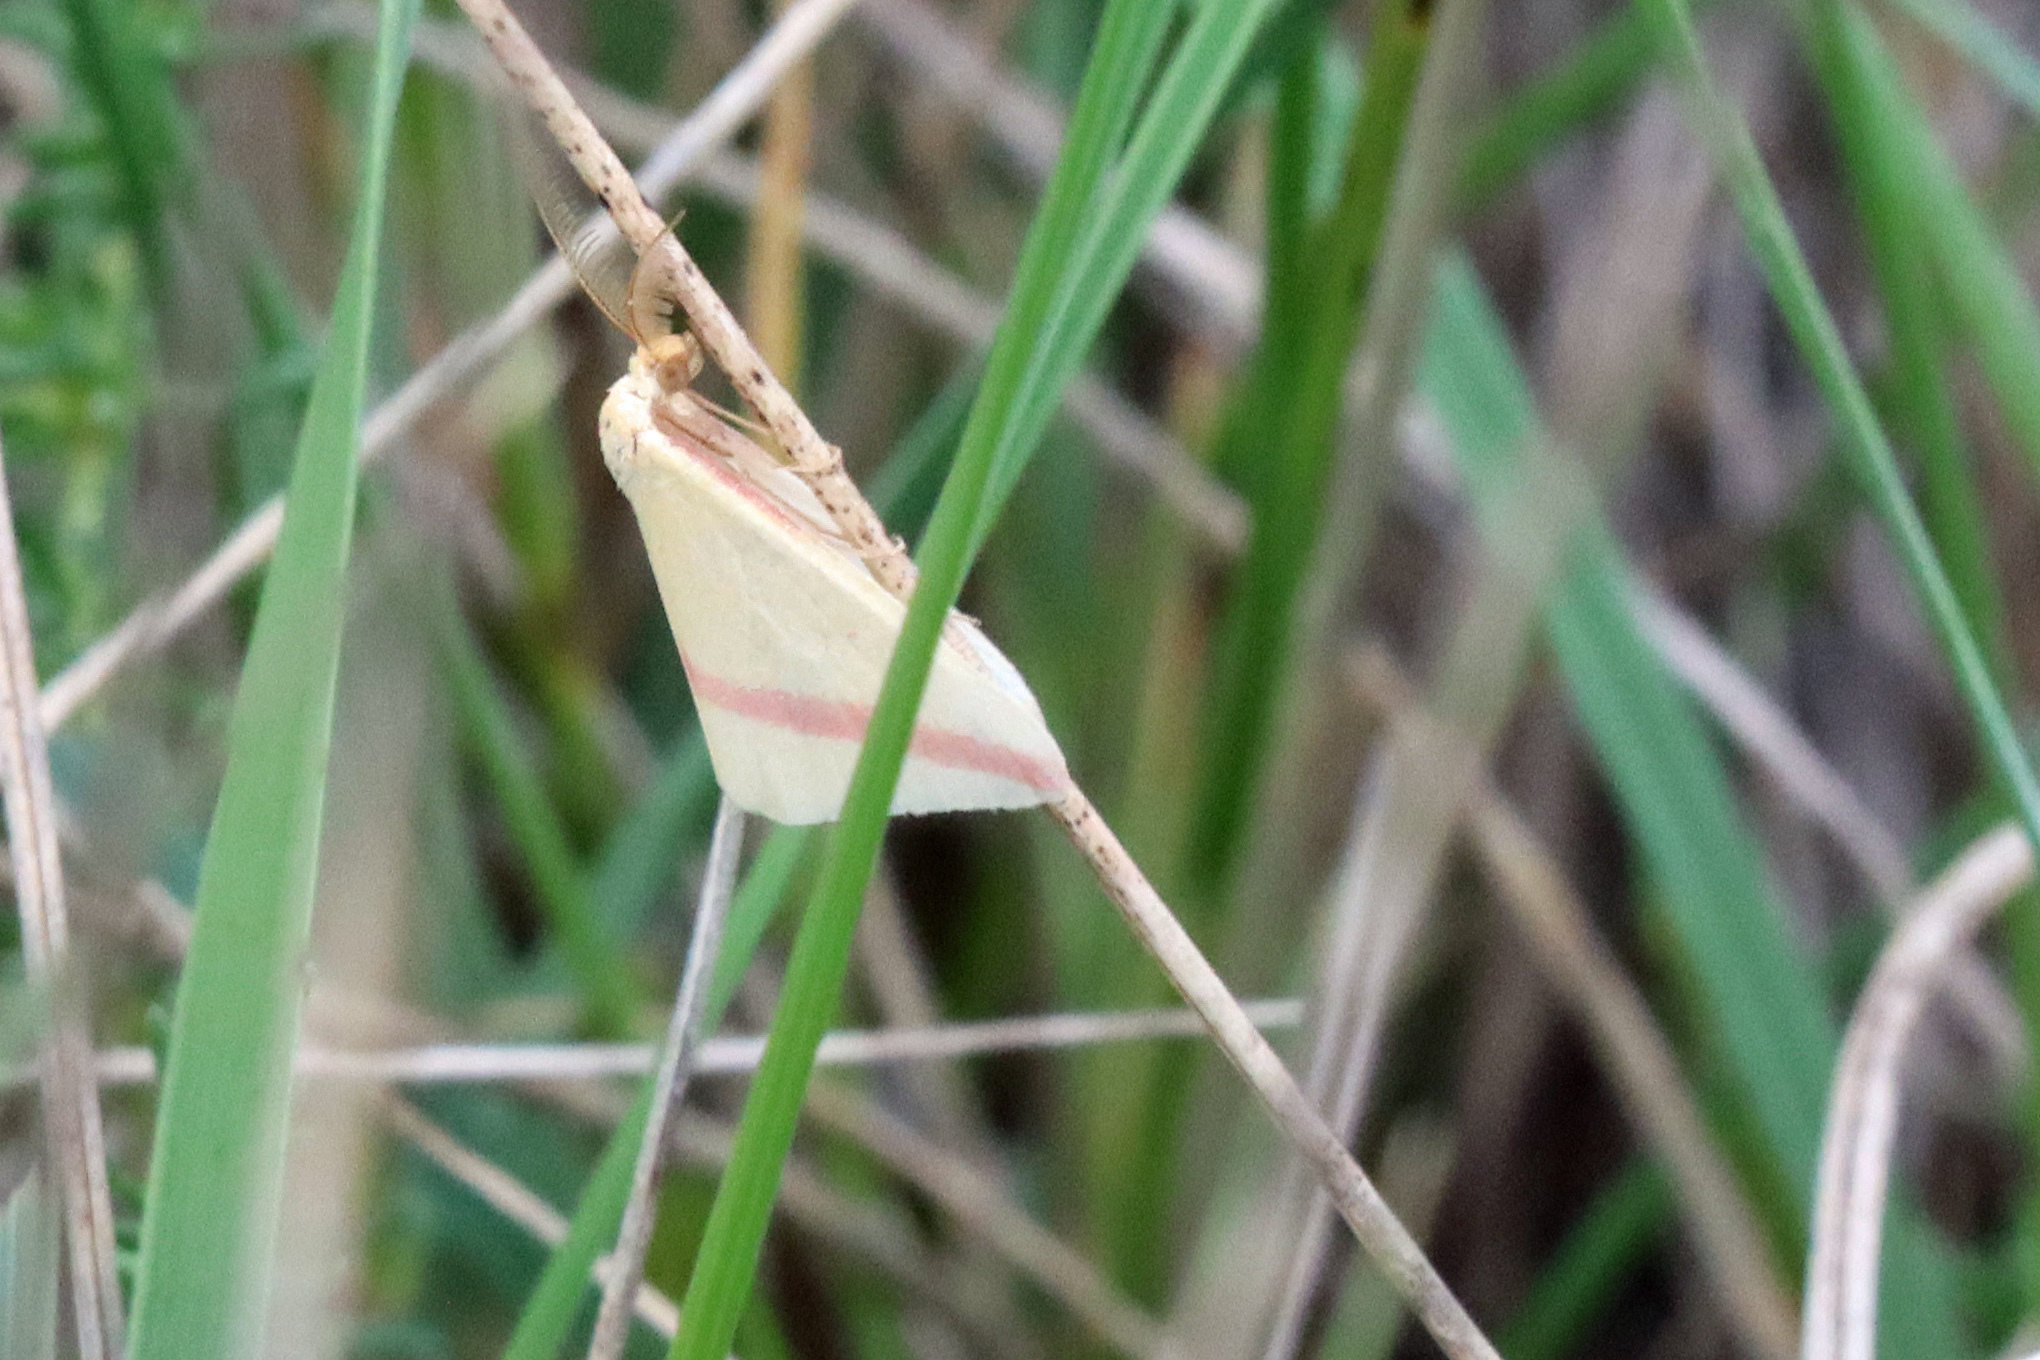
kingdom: Animalia
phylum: Arthropoda
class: Insecta
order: Lepidoptera
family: Geometridae
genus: Rhodometra
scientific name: Rhodometra sacraria
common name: Vestal
